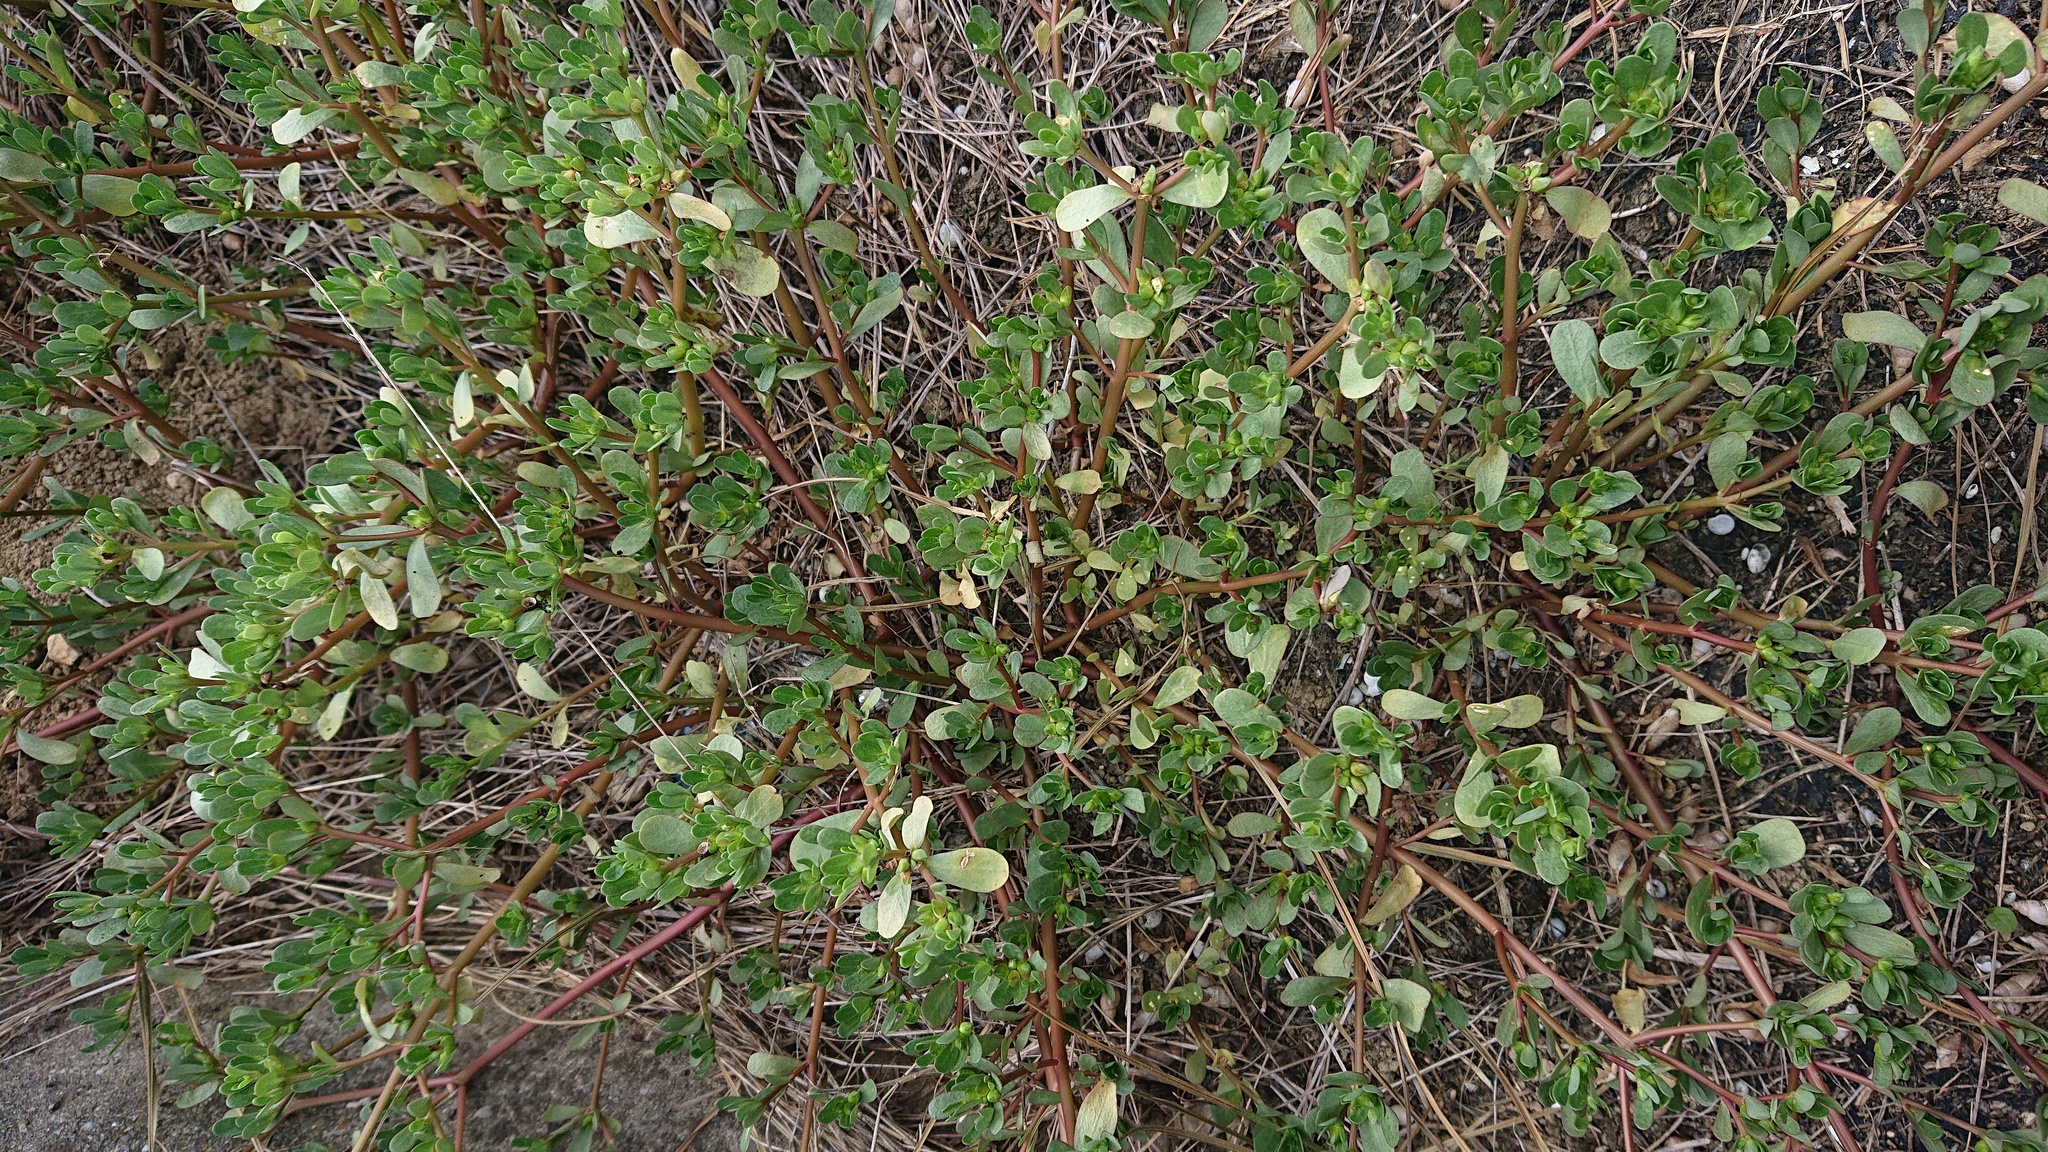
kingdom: Plantae
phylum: Tracheophyta
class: Magnoliopsida
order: Caryophyllales
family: Portulacaceae
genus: Portulaca
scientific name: Portulaca oleracea
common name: Common purslane
